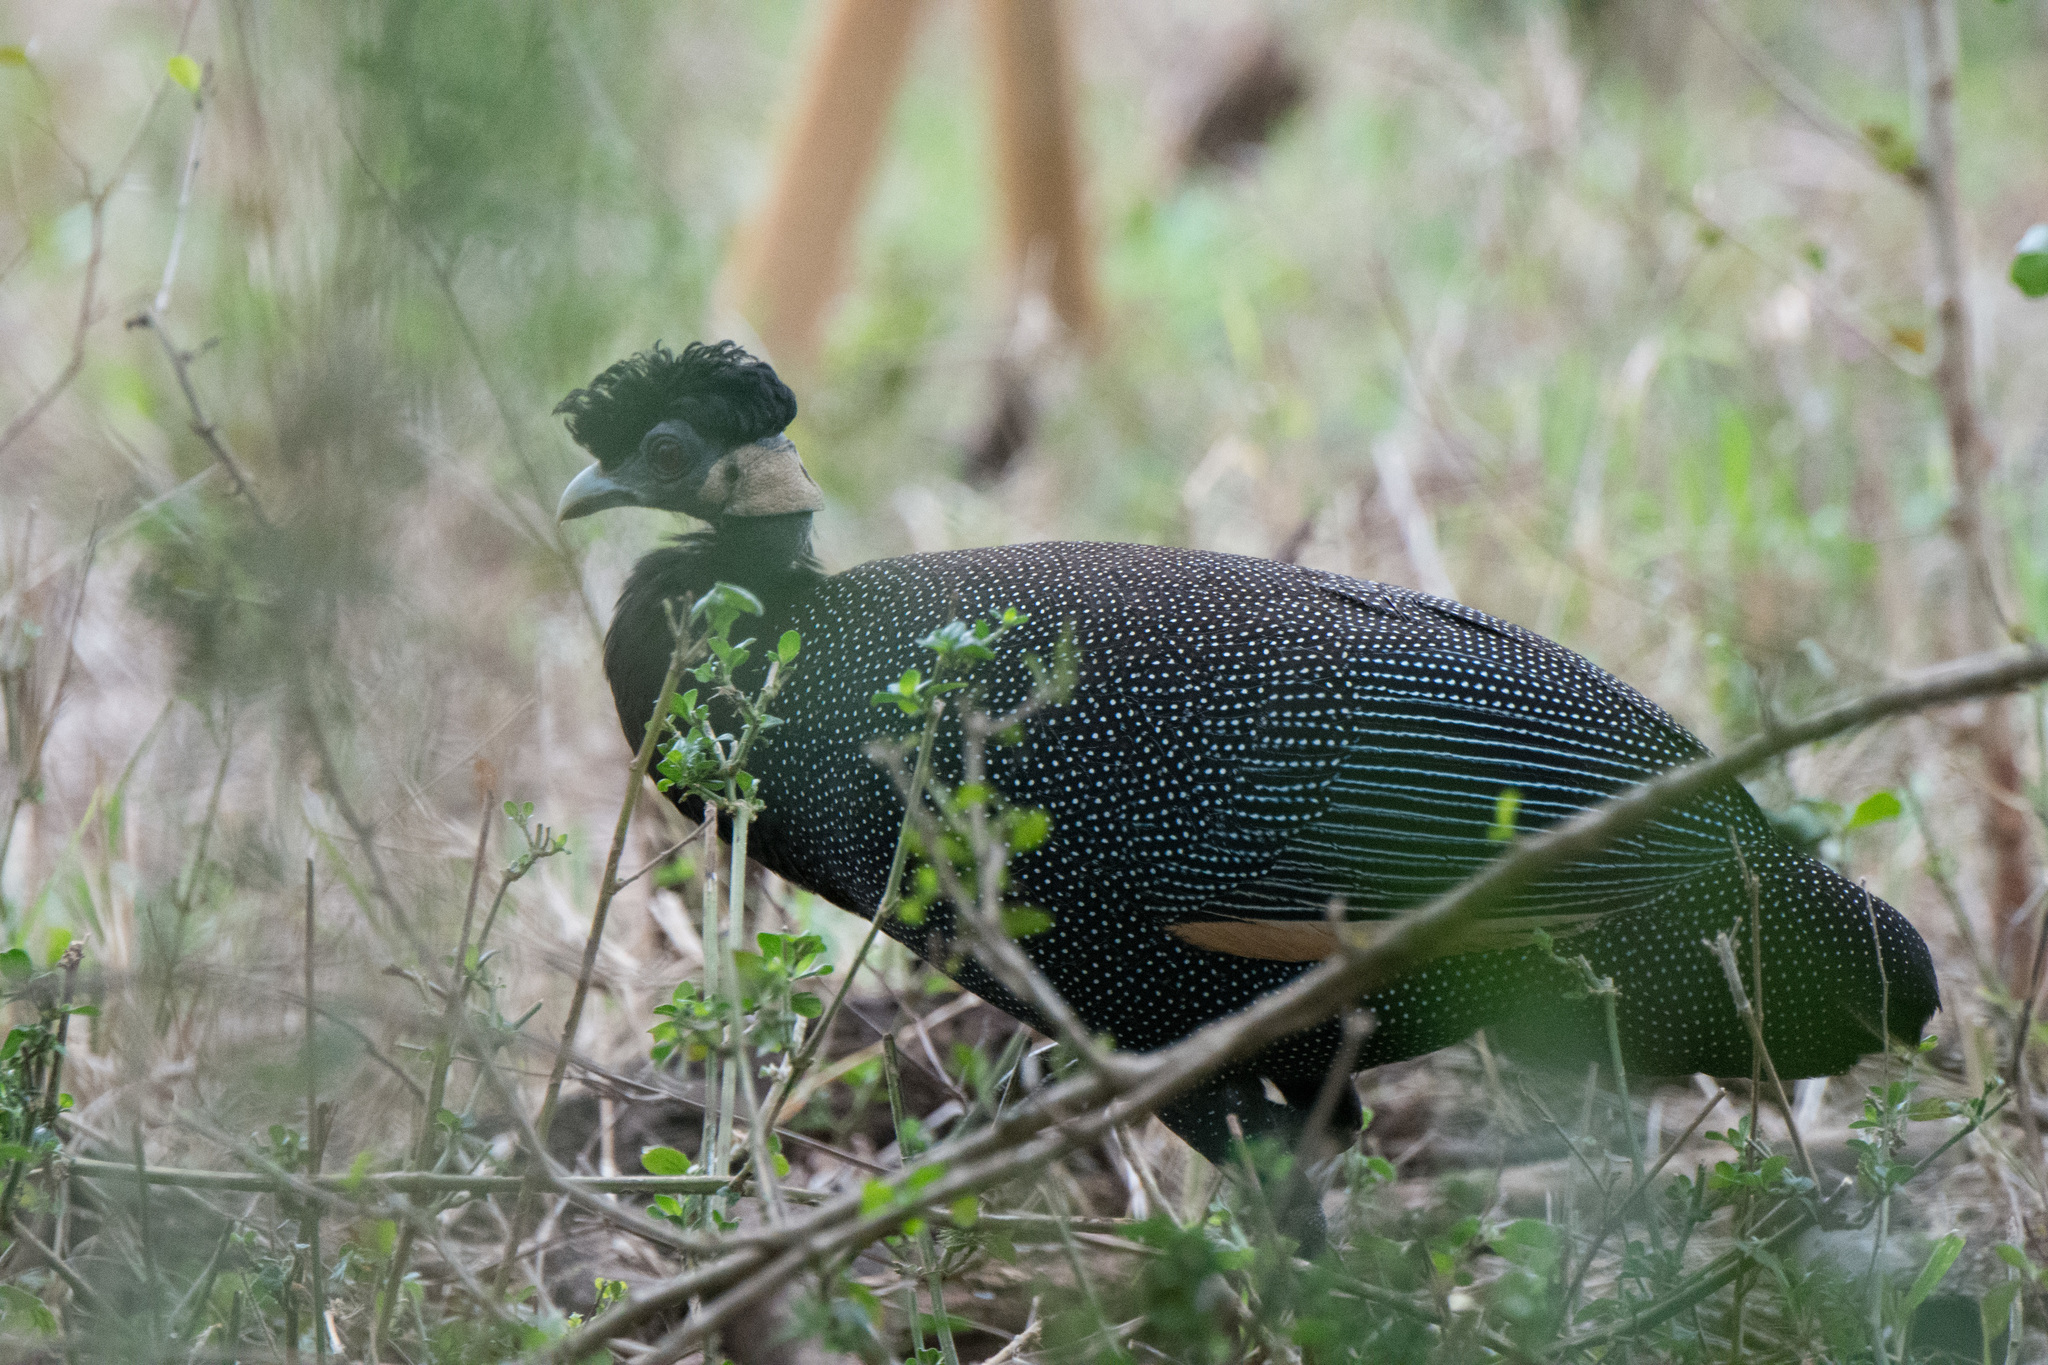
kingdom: Animalia
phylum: Chordata
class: Aves
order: Galliformes
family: Numididae
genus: Guttera
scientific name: Guttera pucherani
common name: Crested guineafowl
